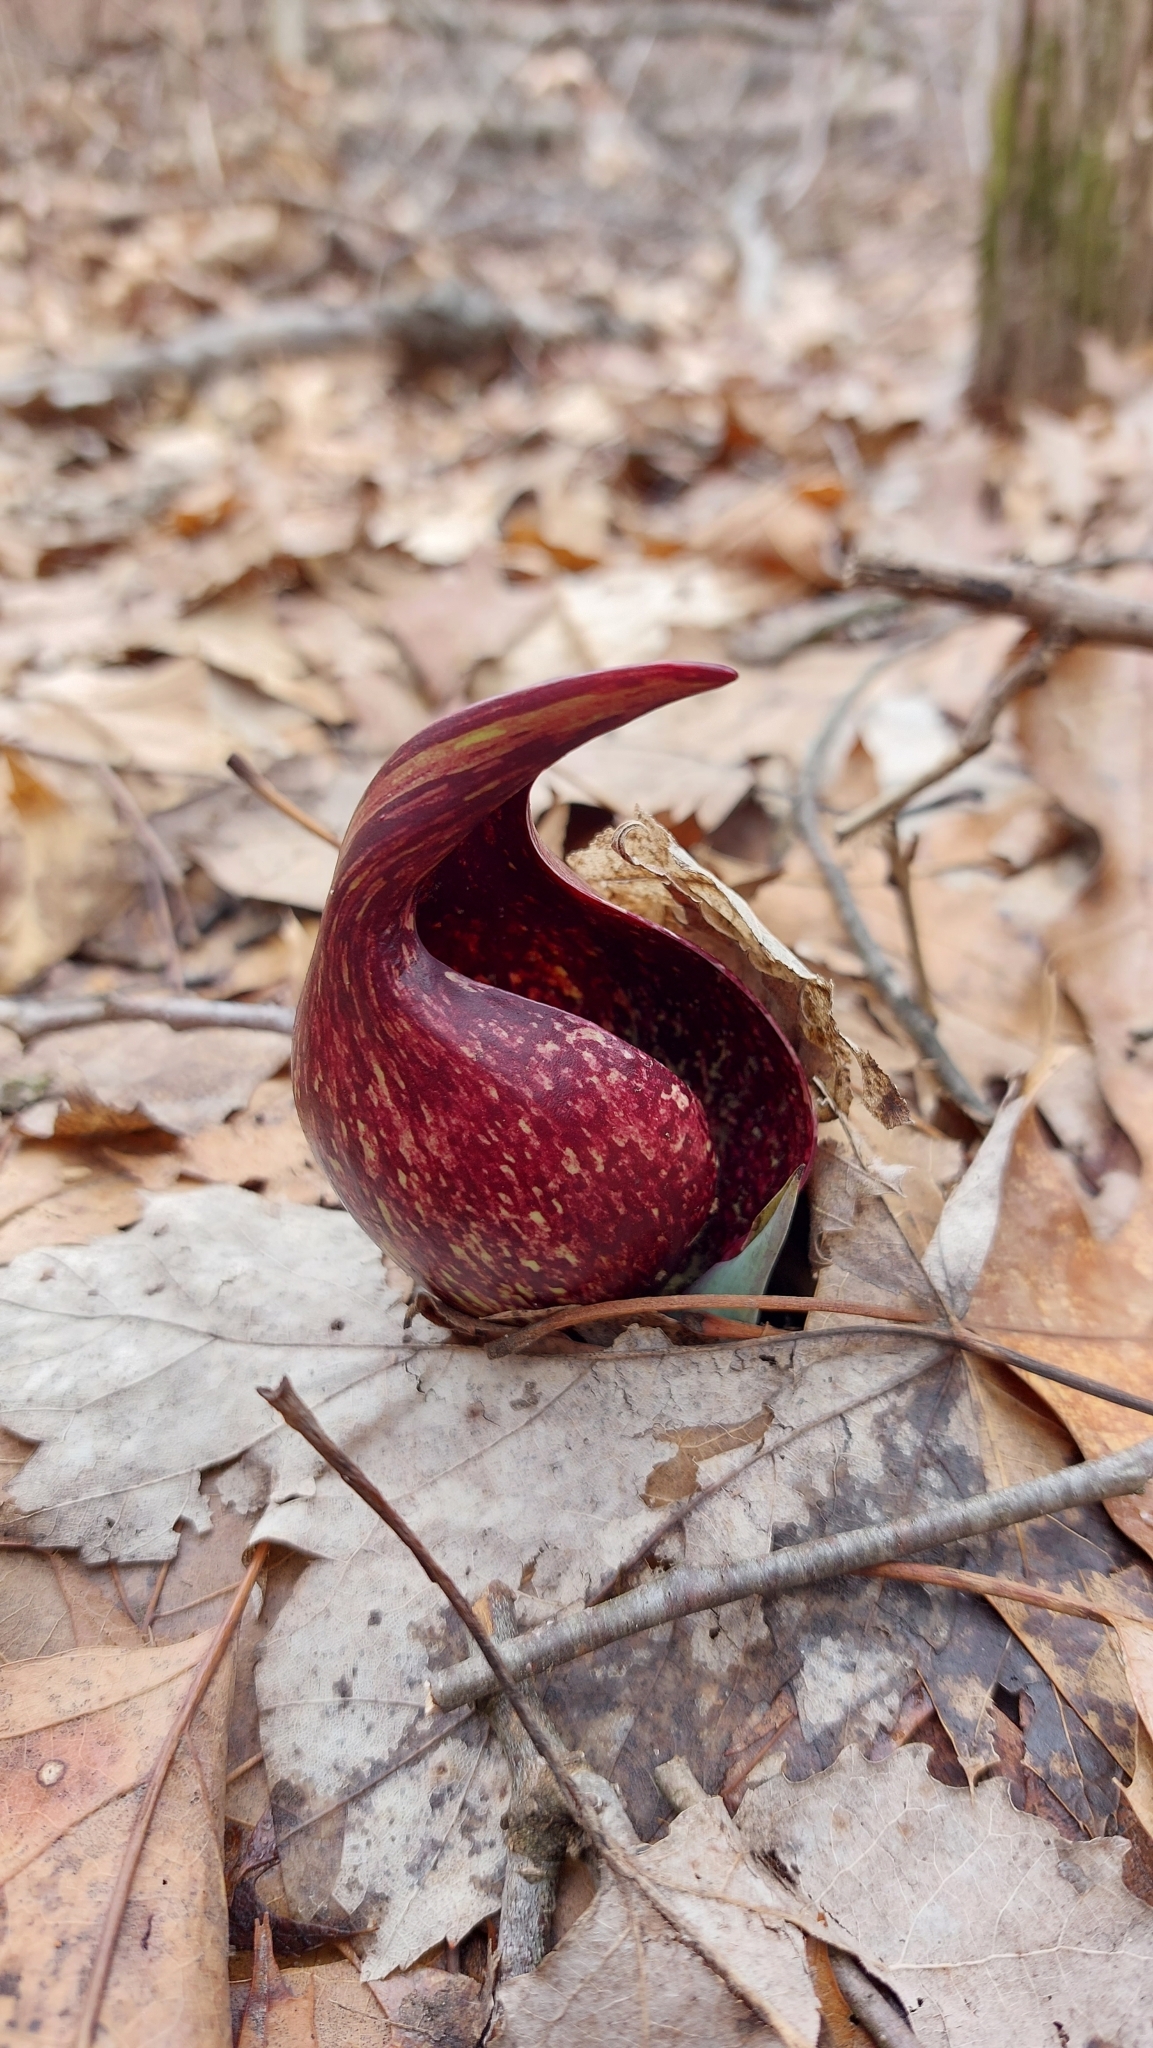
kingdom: Plantae
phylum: Tracheophyta
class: Liliopsida
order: Alismatales
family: Araceae
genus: Symplocarpus
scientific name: Symplocarpus foetidus
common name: Eastern skunk cabbage
